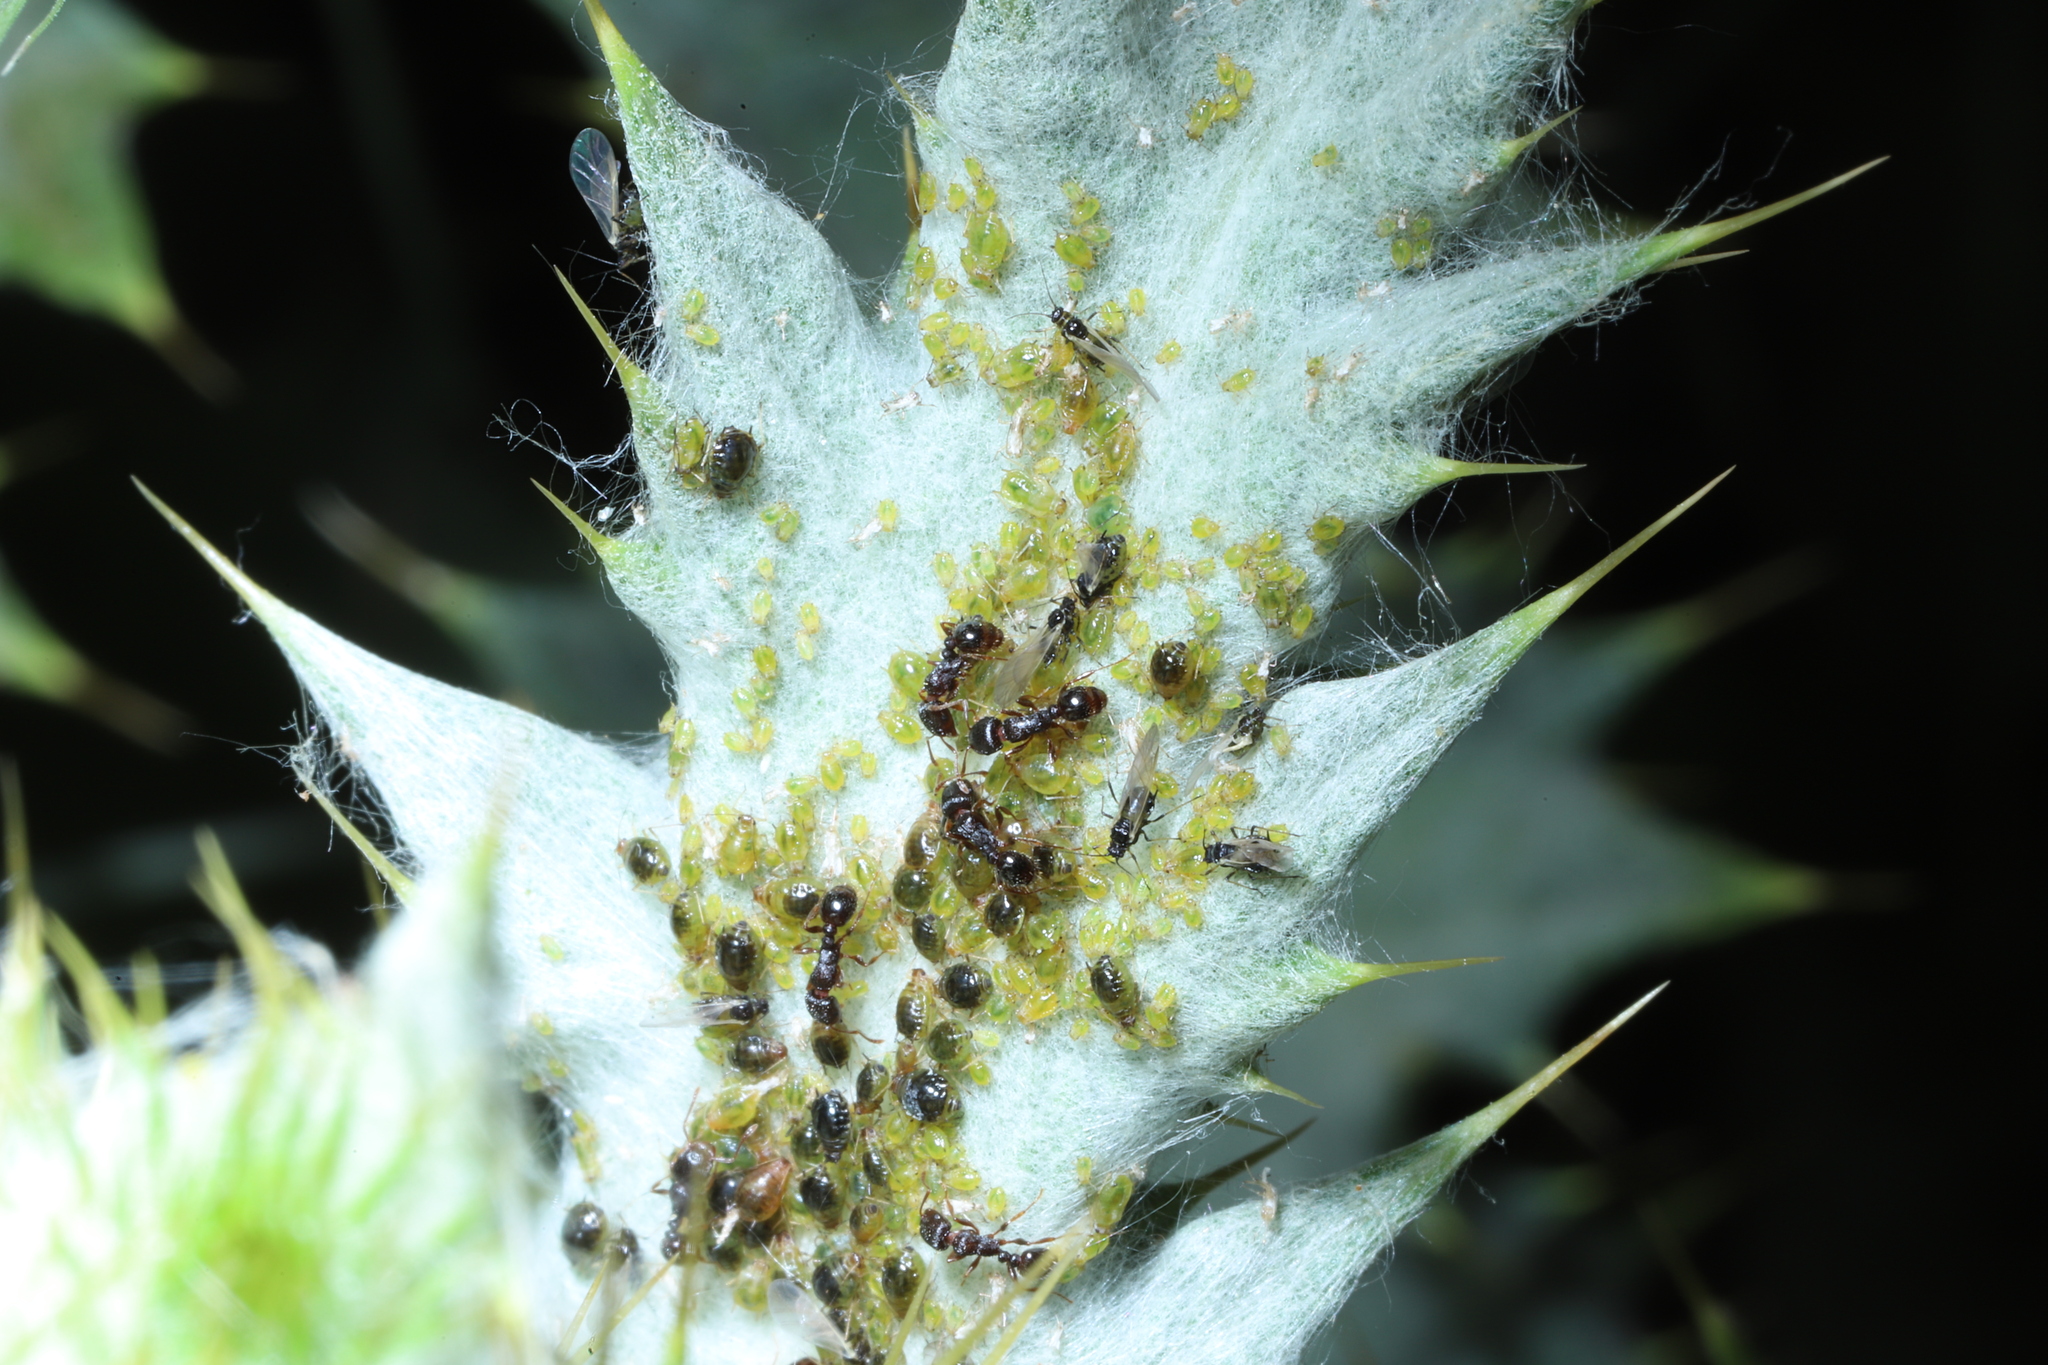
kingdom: Animalia
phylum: Arthropoda
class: Insecta
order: Hymenoptera
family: Formicidae
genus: Tetramorium
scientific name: Tetramorium immigrans
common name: Pavement ant
